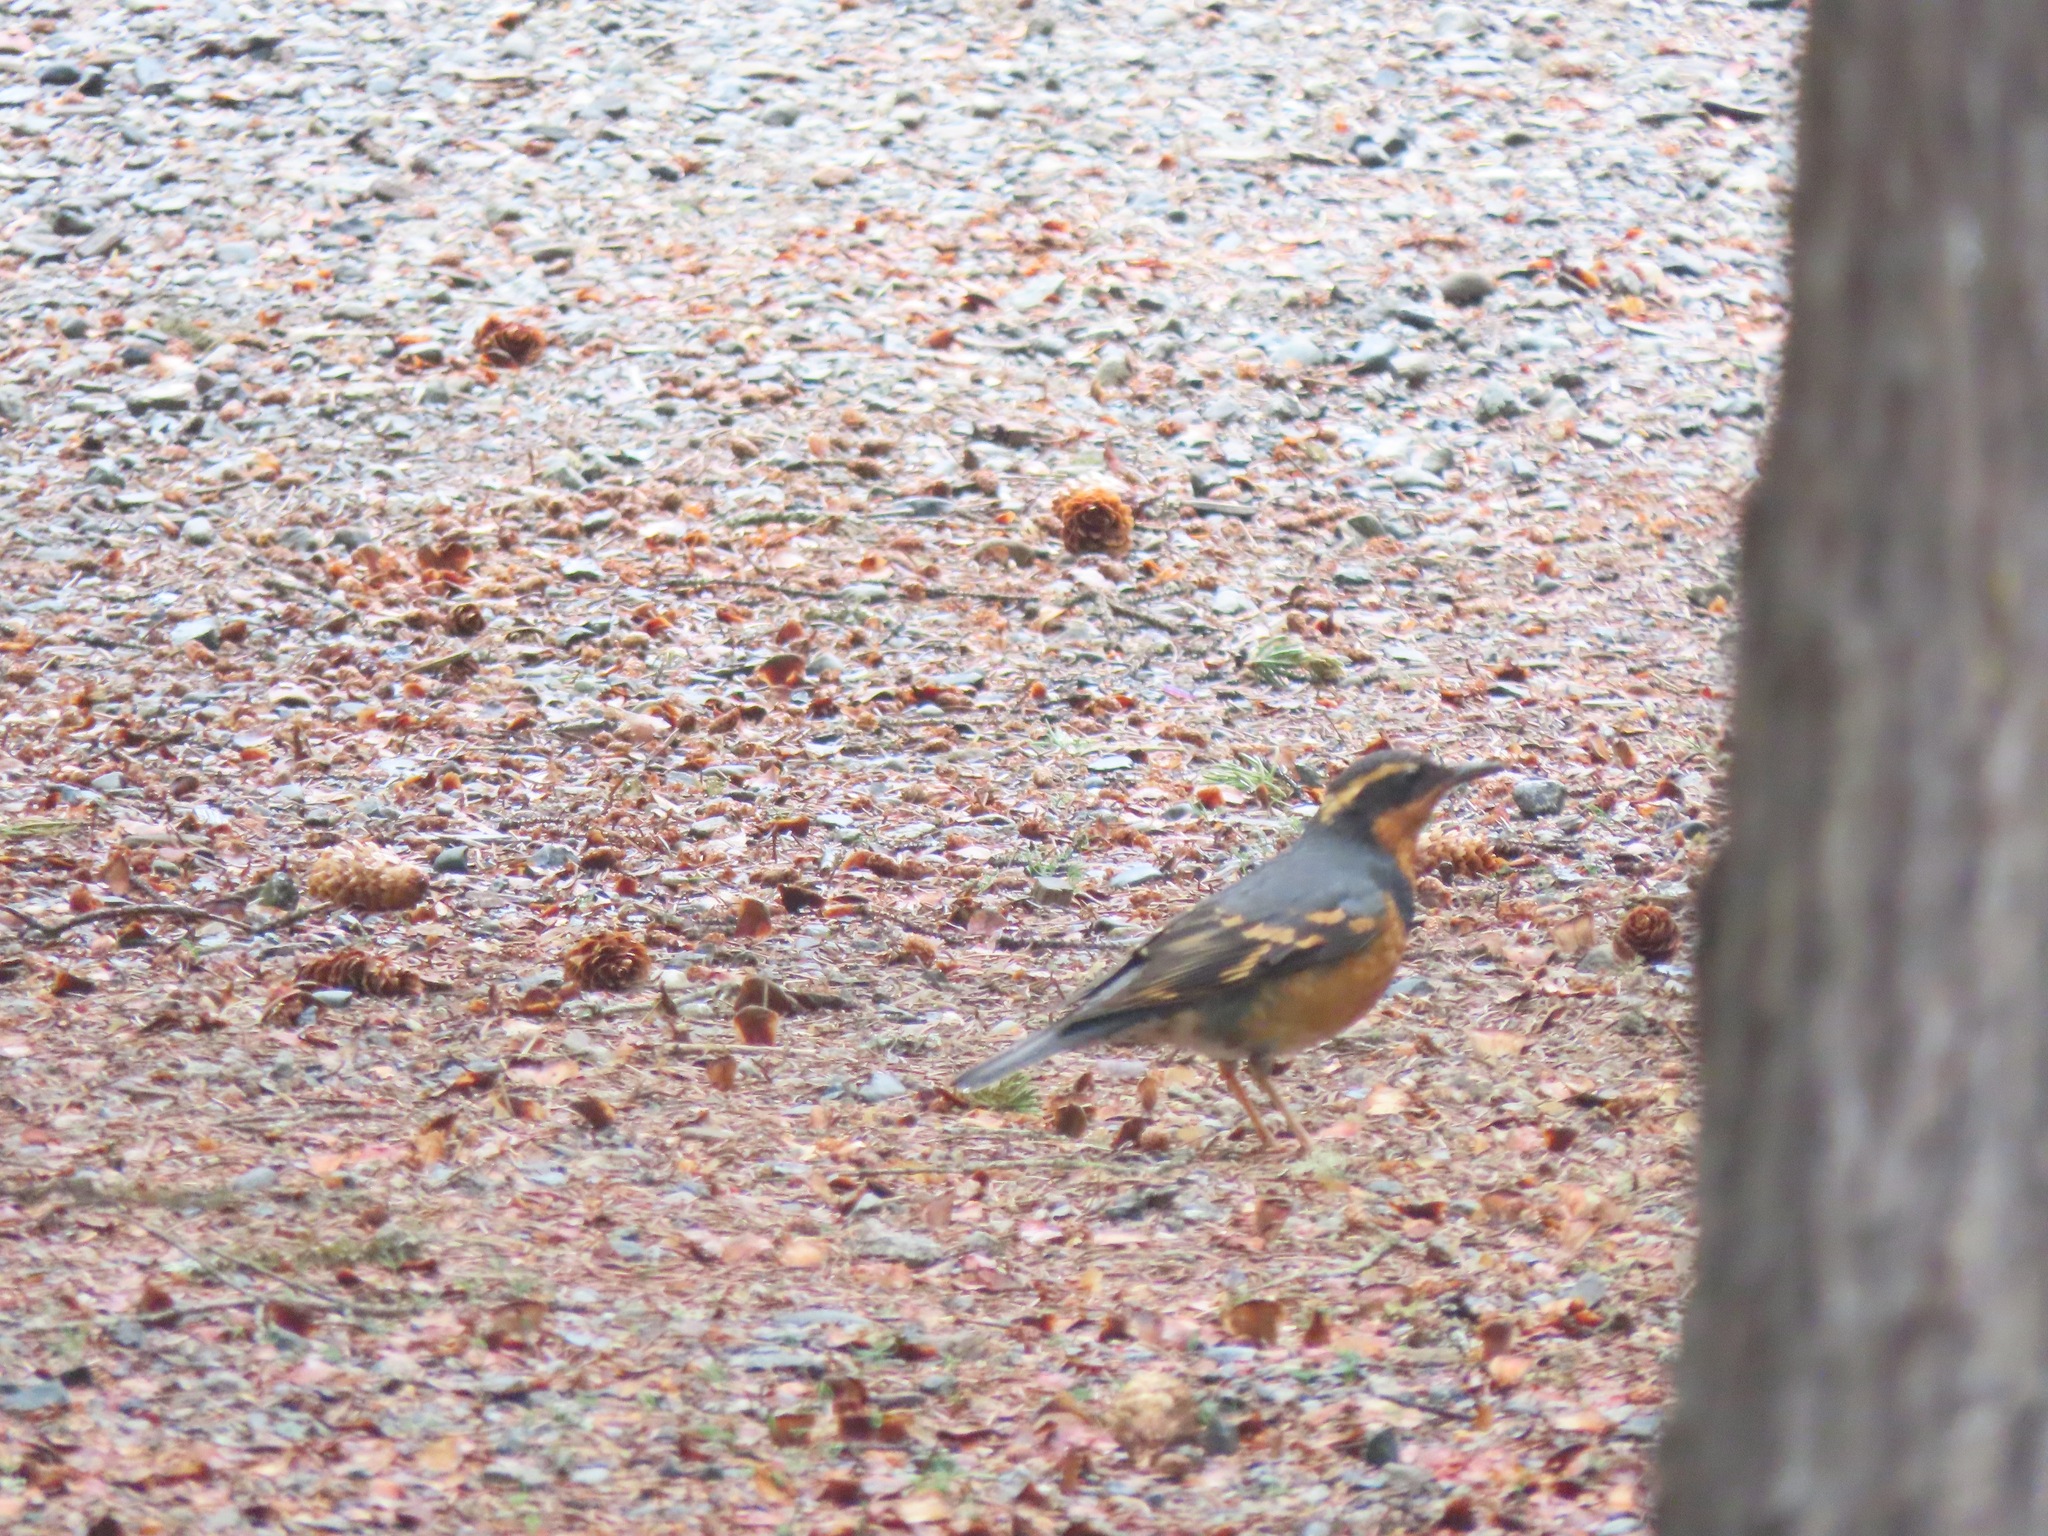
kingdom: Animalia
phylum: Chordata
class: Aves
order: Passeriformes
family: Turdidae
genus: Ixoreus
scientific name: Ixoreus naevius
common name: Varied thrush
